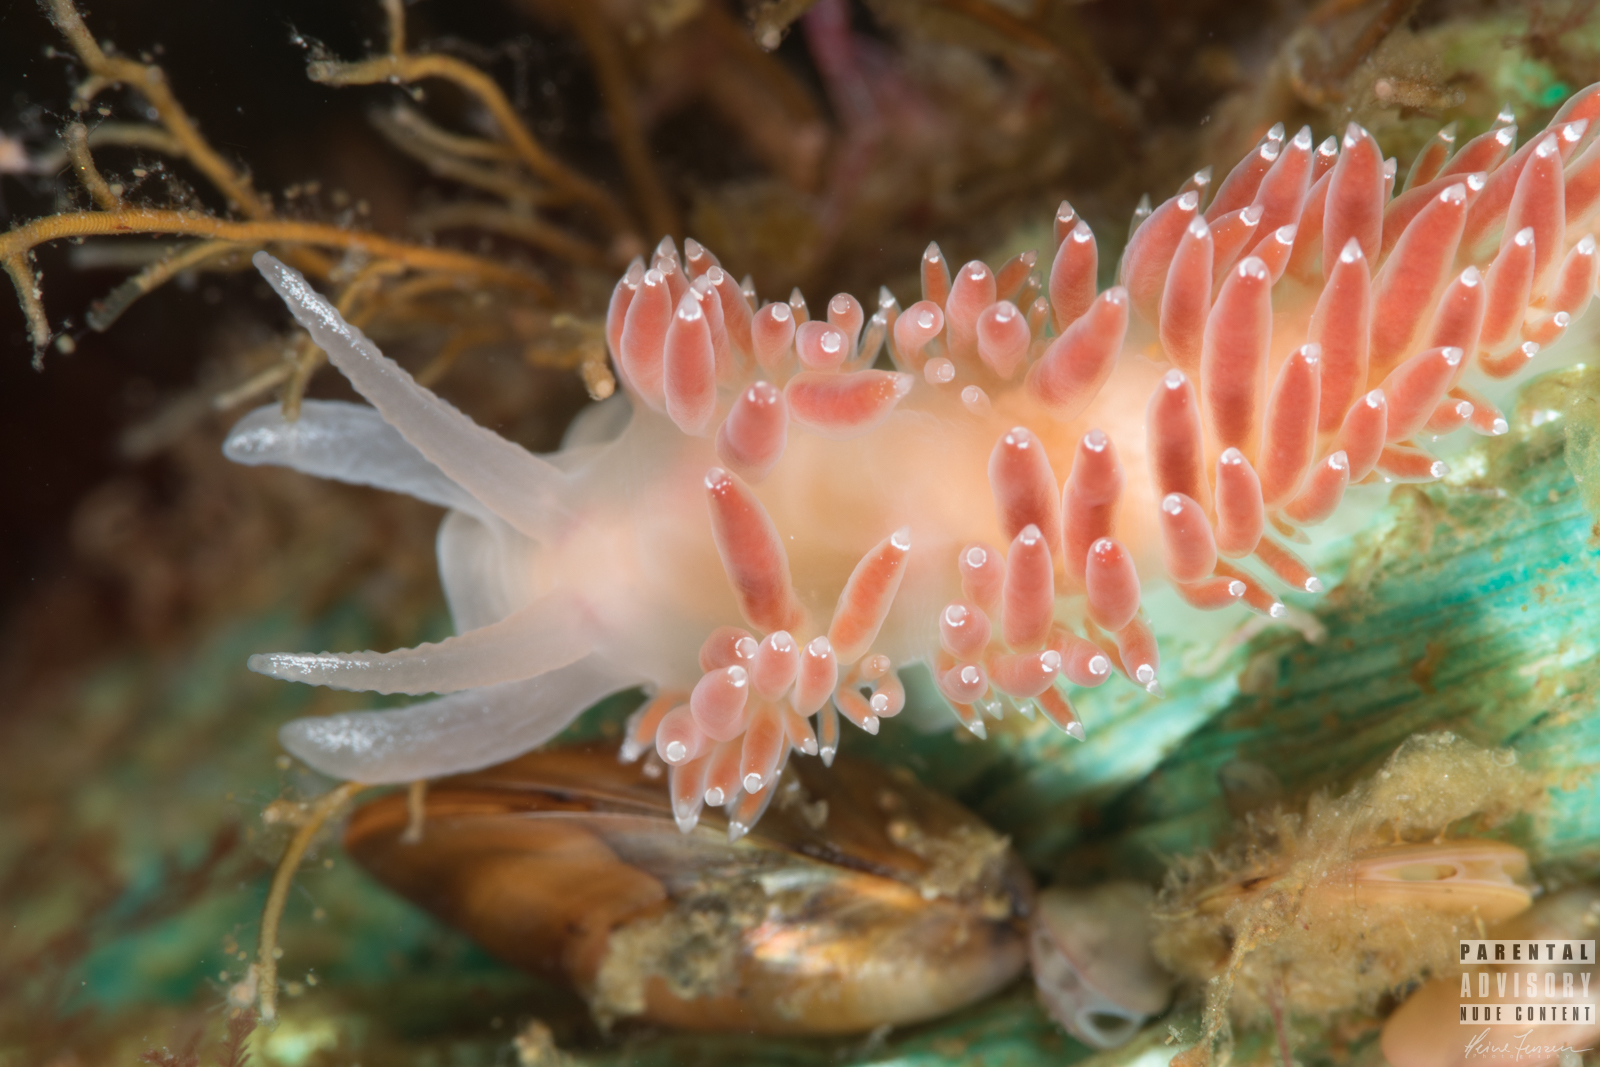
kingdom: Animalia
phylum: Mollusca
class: Gastropoda
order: Nudibranchia
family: Coryphellidae
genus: Coryphella
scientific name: Coryphella verrucosa
